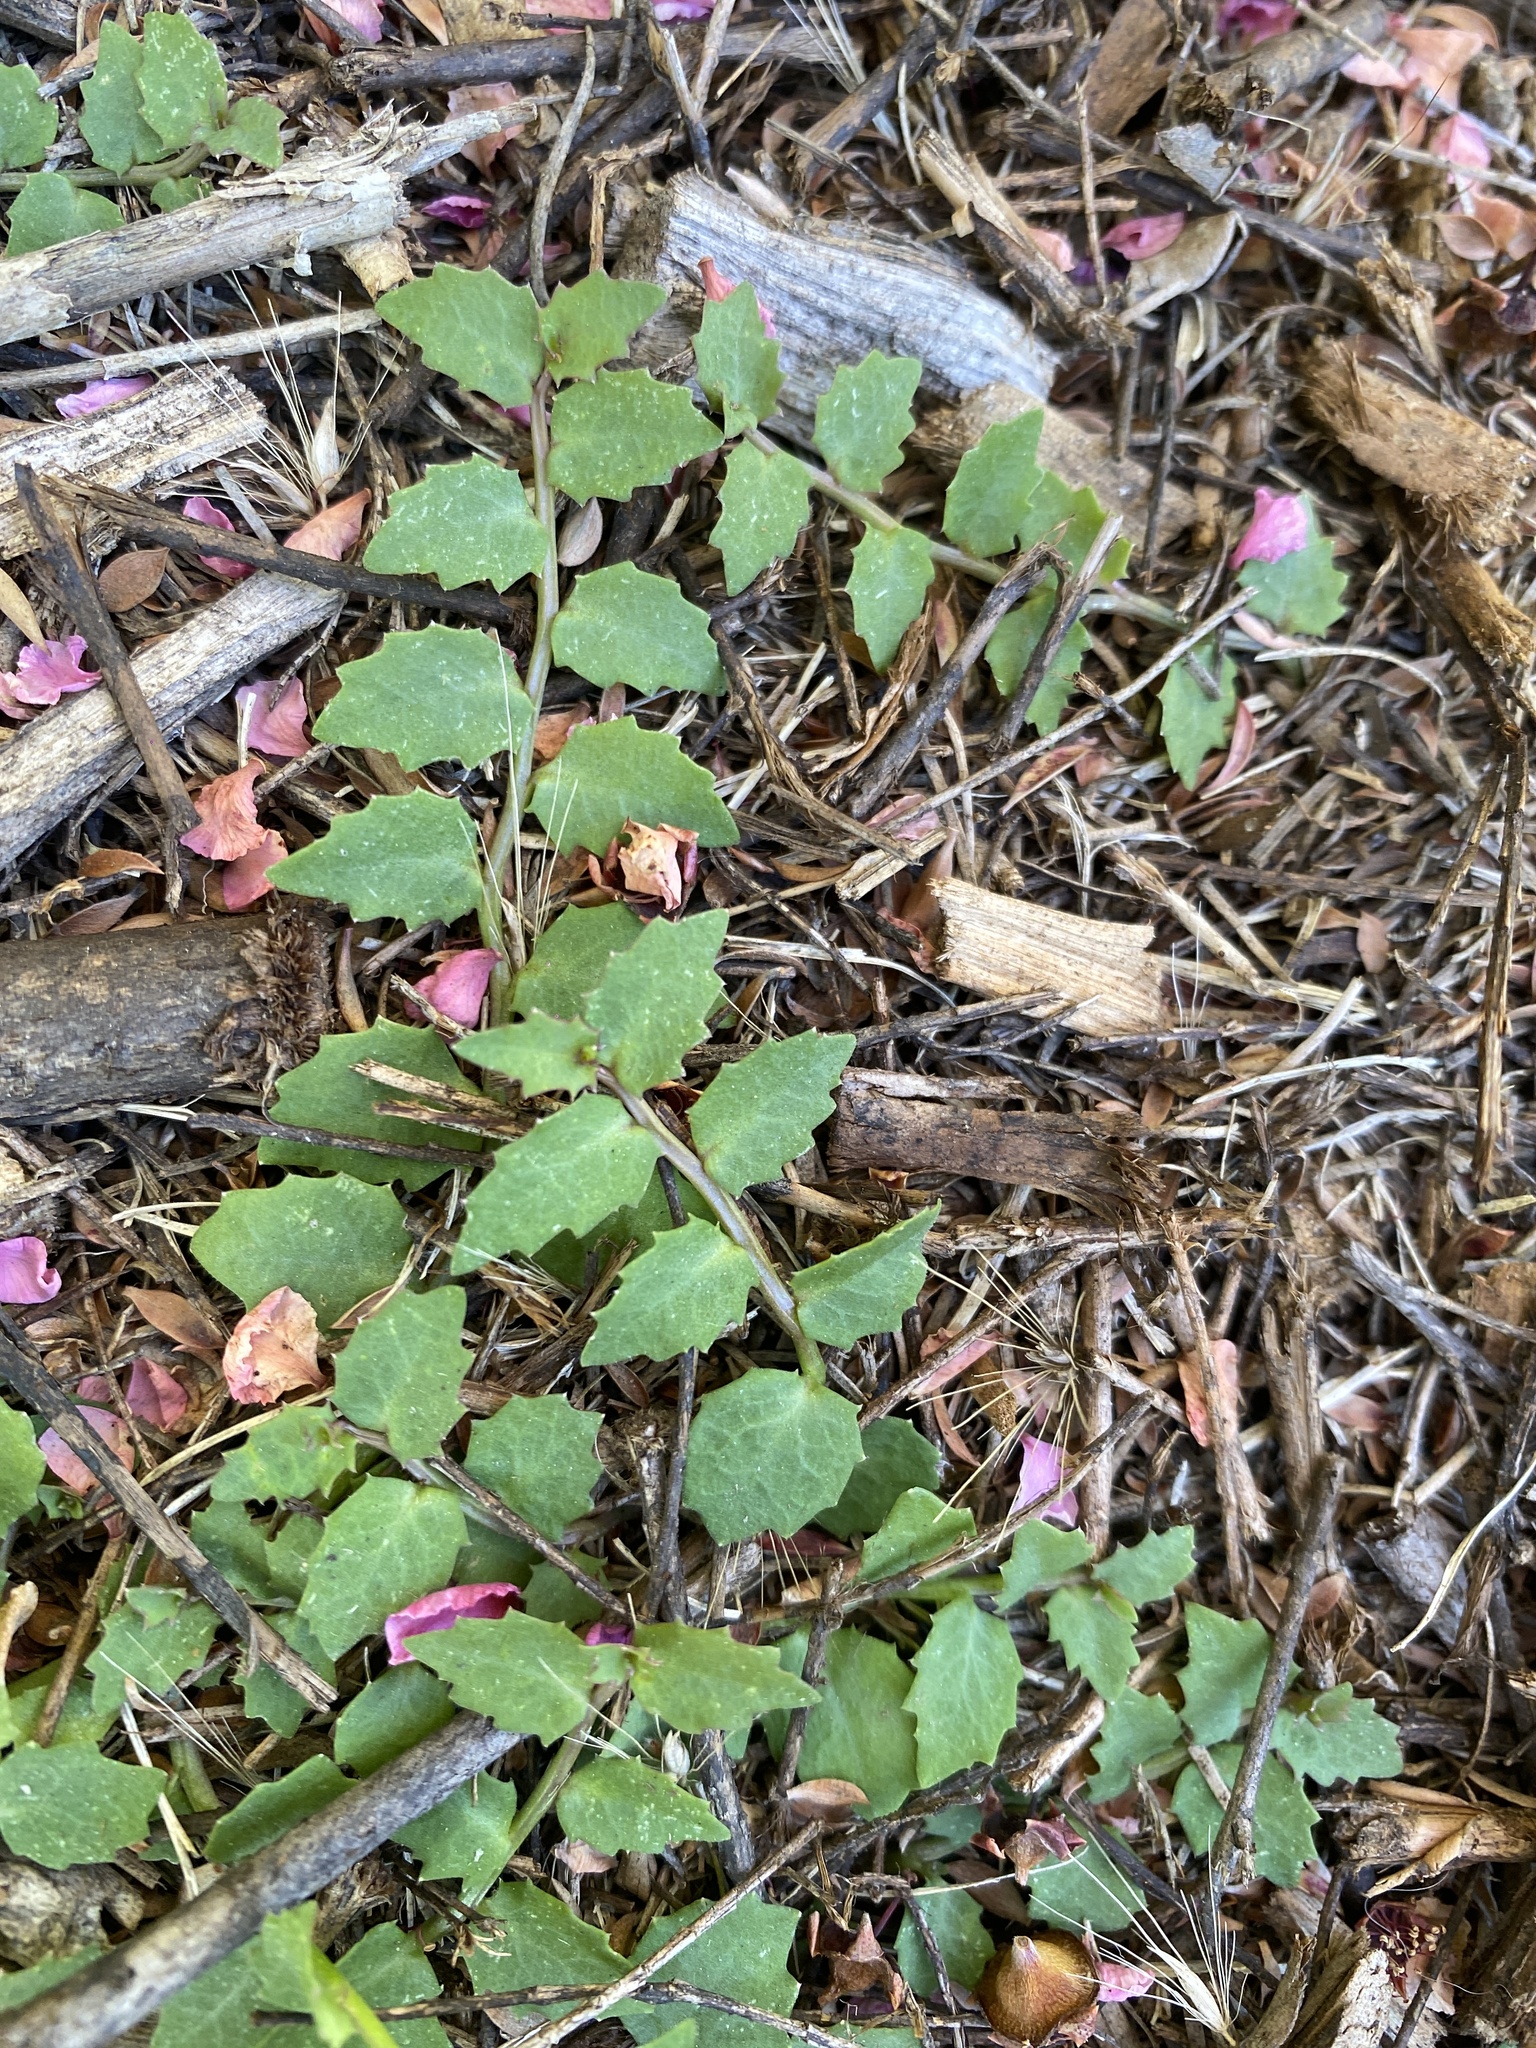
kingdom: Plantae
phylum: Tracheophyta
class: Magnoliopsida
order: Asterales
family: Campanulaceae
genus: Lobelia
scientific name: Lobelia purpurascens
